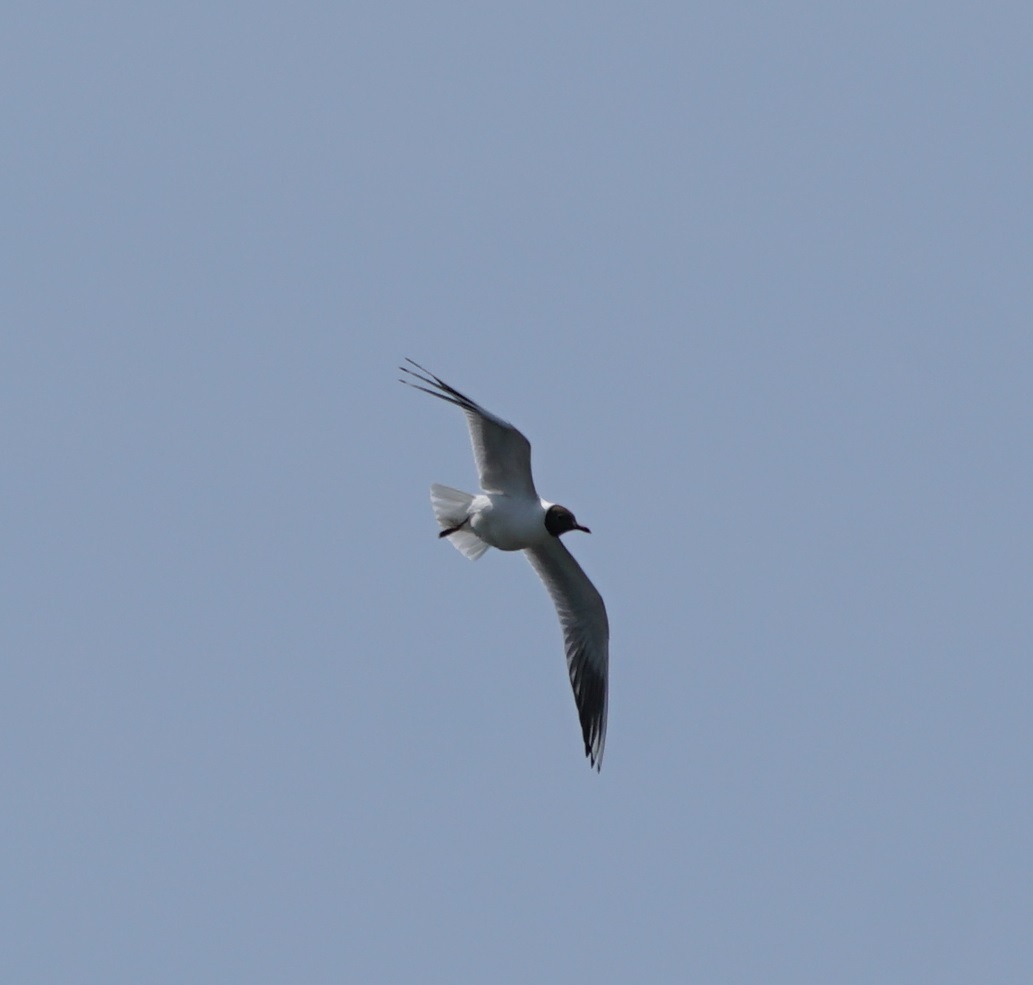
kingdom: Animalia
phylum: Chordata
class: Aves
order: Charadriiformes
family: Laridae
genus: Chroicocephalus
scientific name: Chroicocephalus ridibundus
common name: Black-headed gull
